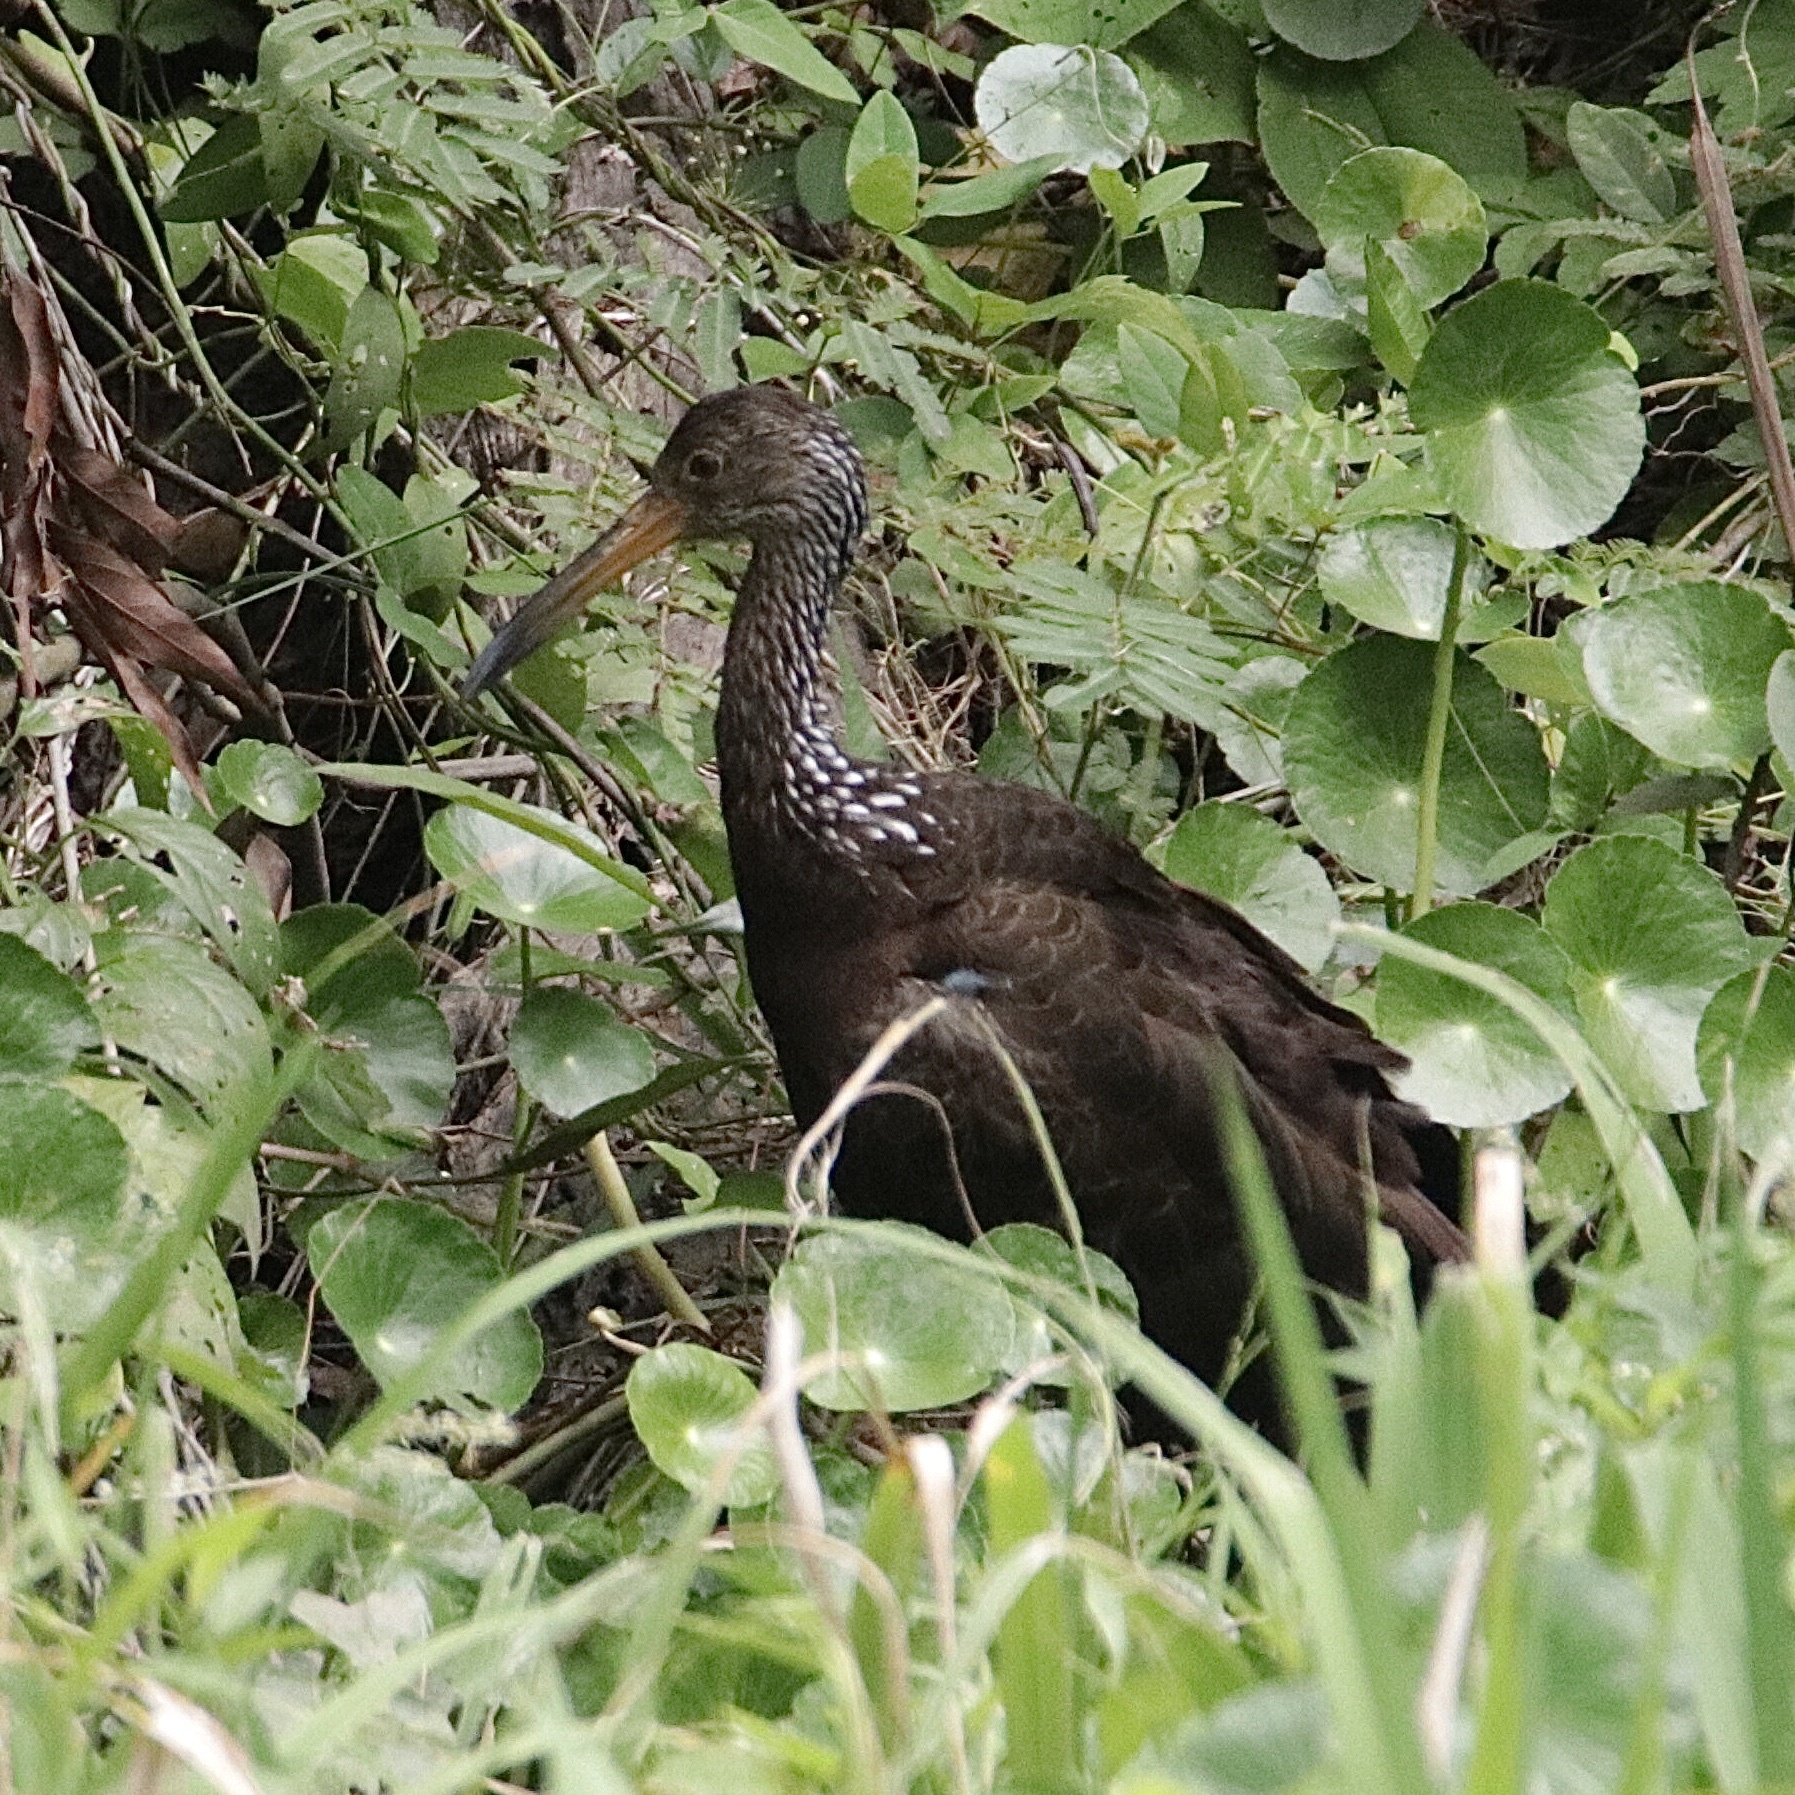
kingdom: Animalia
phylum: Chordata
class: Aves
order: Gruiformes
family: Aramidae
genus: Aramus
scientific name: Aramus guarauna
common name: Limpkin
